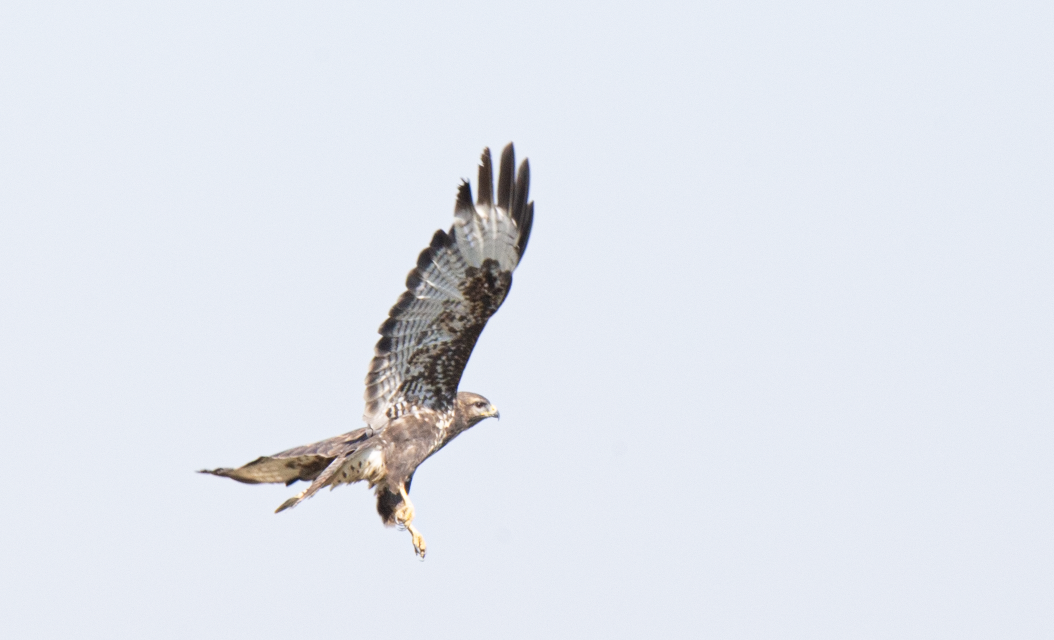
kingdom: Animalia
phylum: Chordata
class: Aves
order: Accipitriformes
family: Accipitridae
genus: Buteo
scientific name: Buteo buteo
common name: Common buzzard
